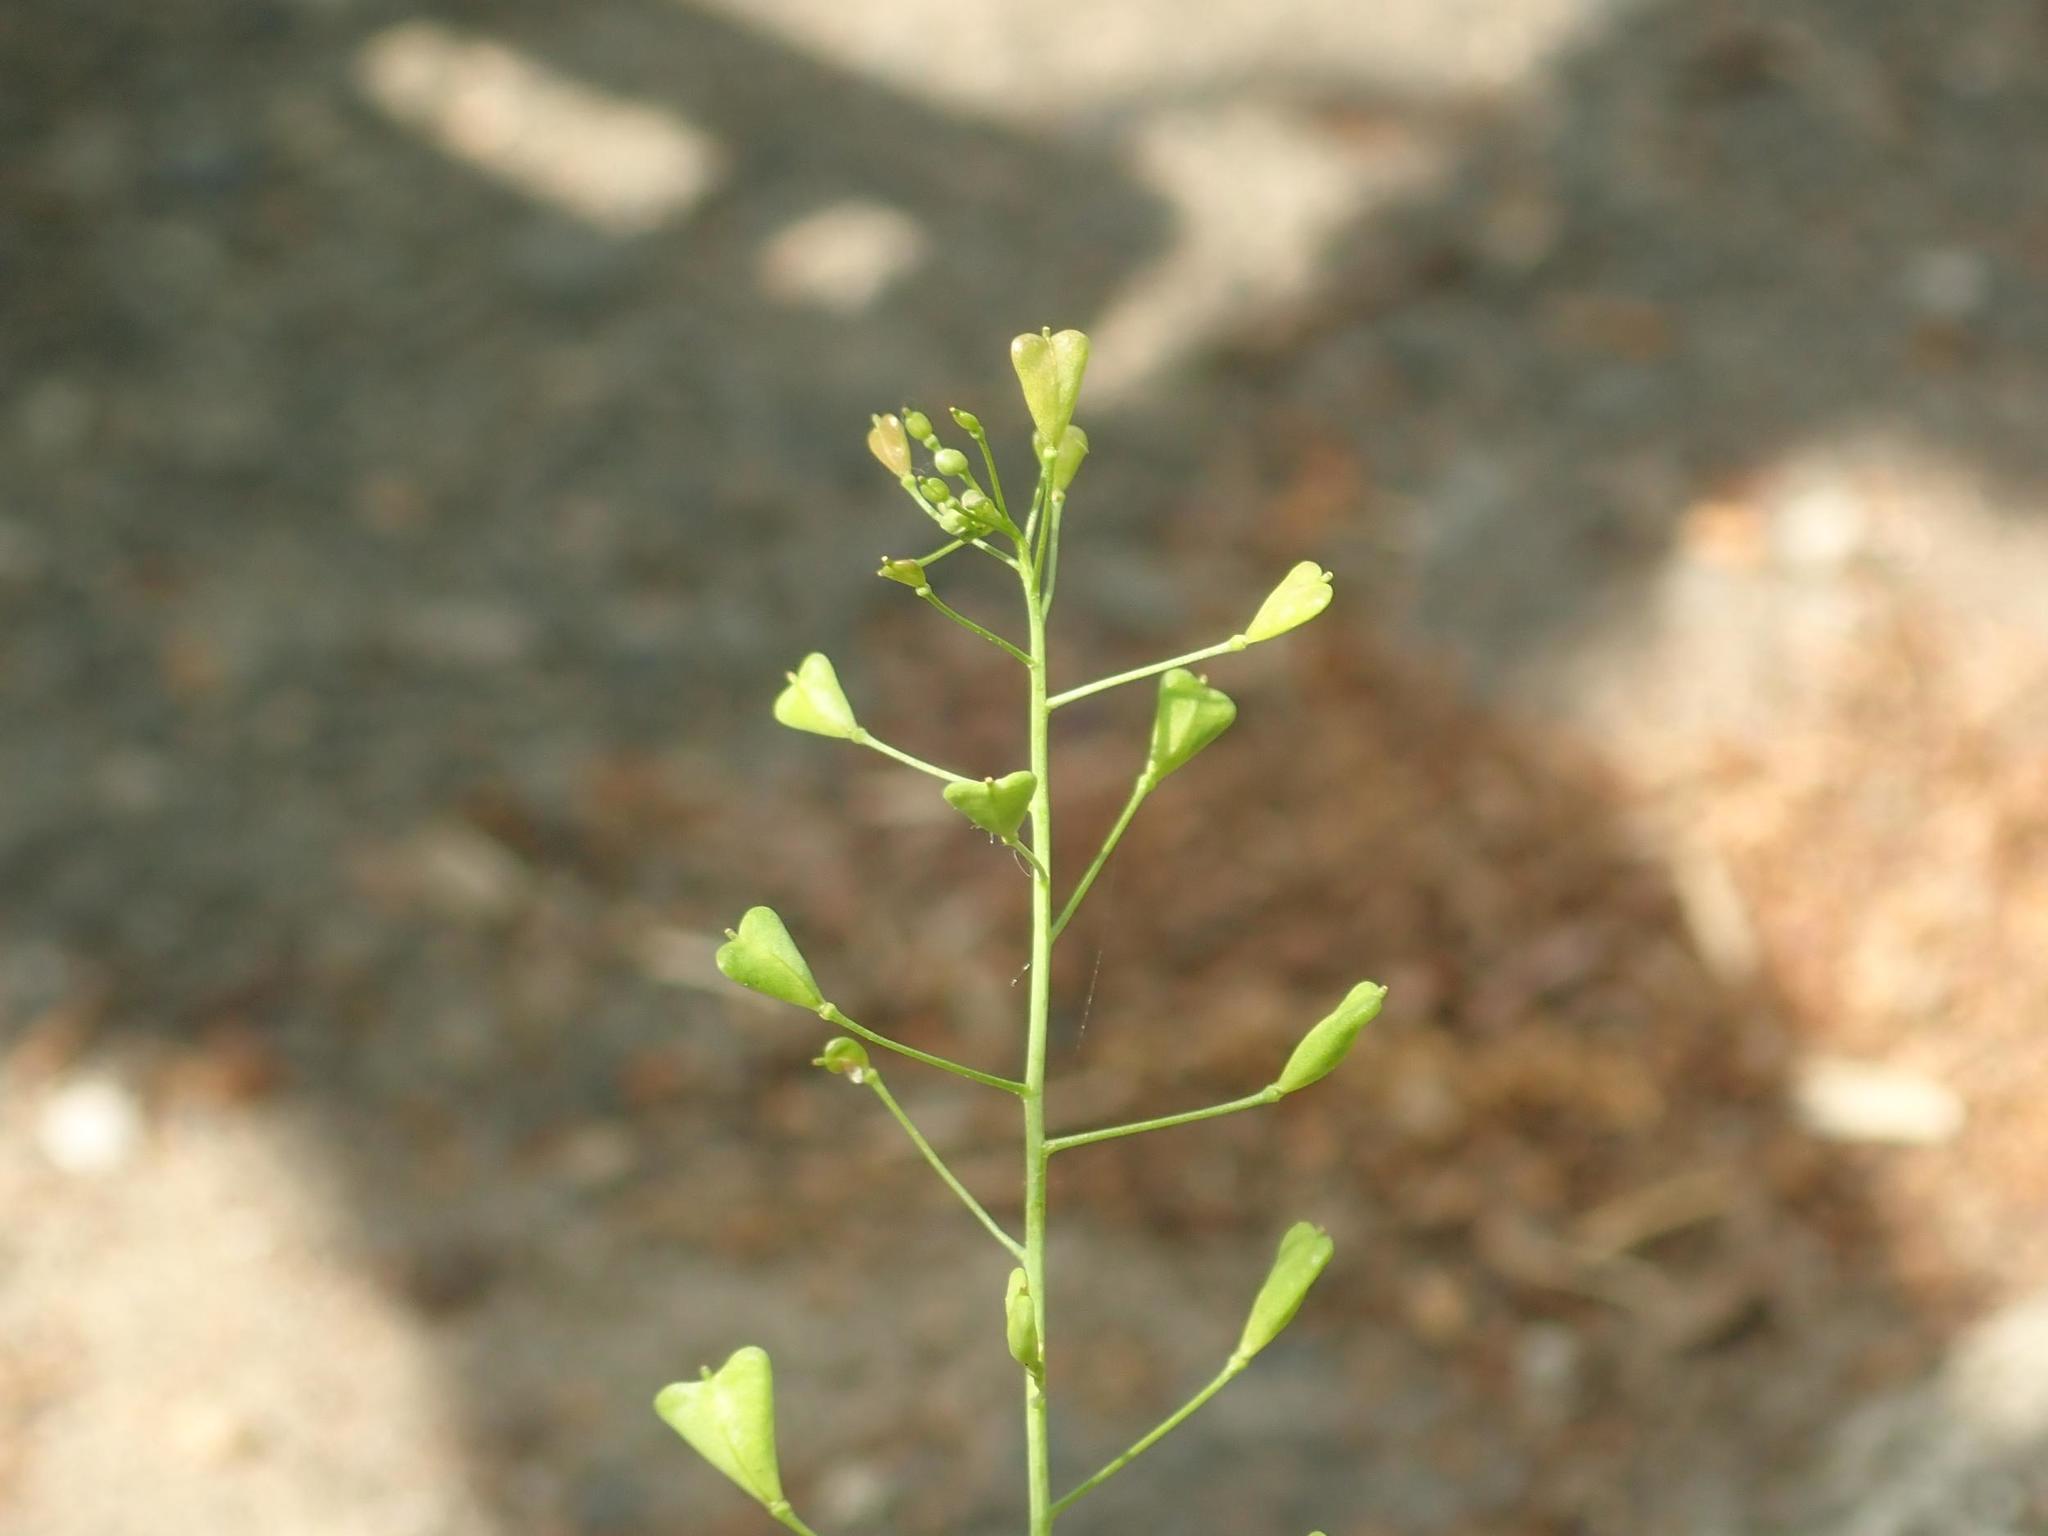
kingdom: Plantae
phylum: Tracheophyta
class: Magnoliopsida
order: Brassicales
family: Brassicaceae
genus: Capsella
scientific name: Capsella bursa-pastoris
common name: Shepherd's purse
